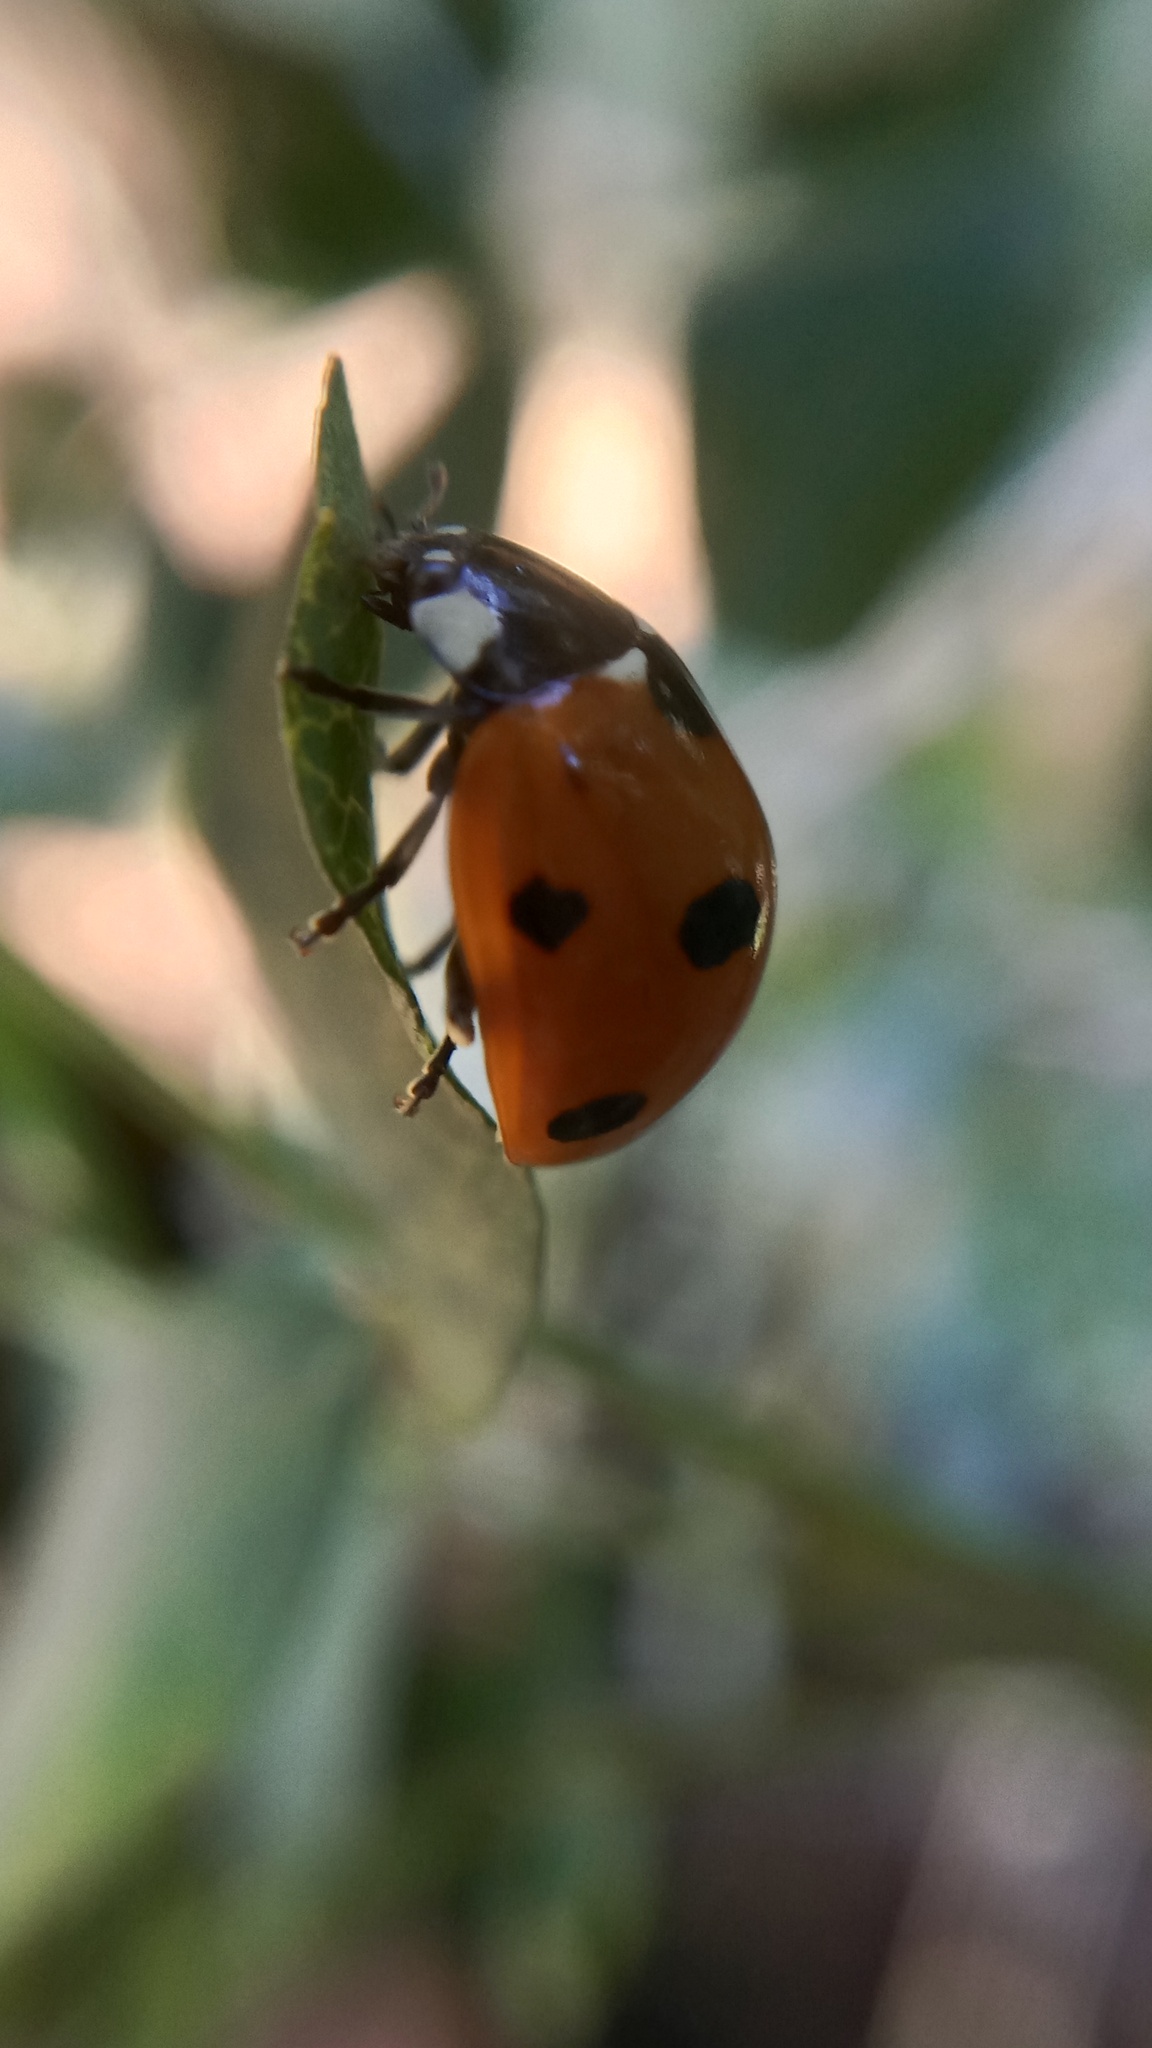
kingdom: Animalia
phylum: Arthropoda
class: Insecta
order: Coleoptera
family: Coccinellidae
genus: Coccinella
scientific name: Coccinella septempunctata
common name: Sevenspotted lady beetle
